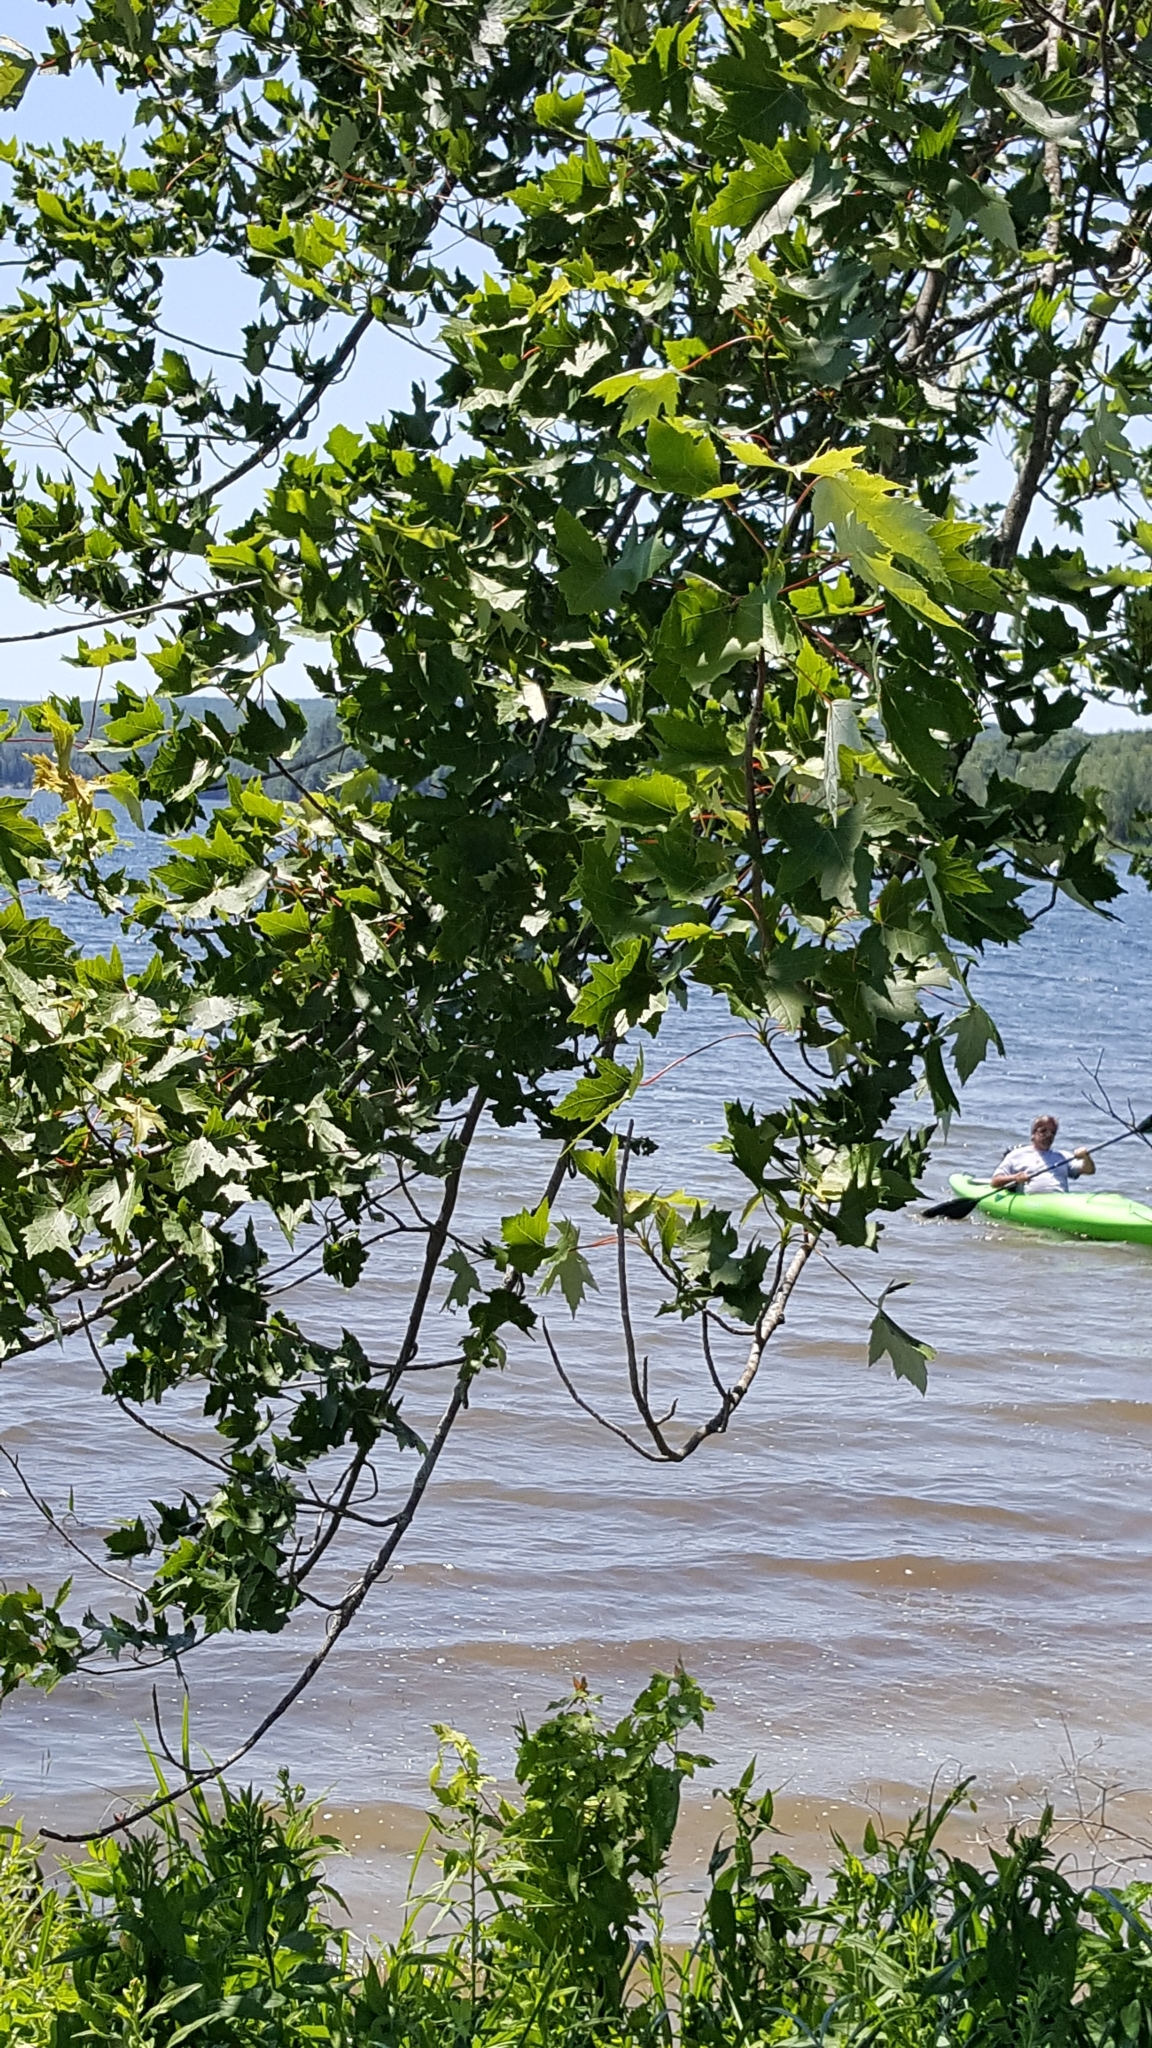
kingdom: Plantae
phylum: Tracheophyta
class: Magnoliopsida
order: Sapindales
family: Sapindaceae
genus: Acer
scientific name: Acer saccharinum
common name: Silver maple
